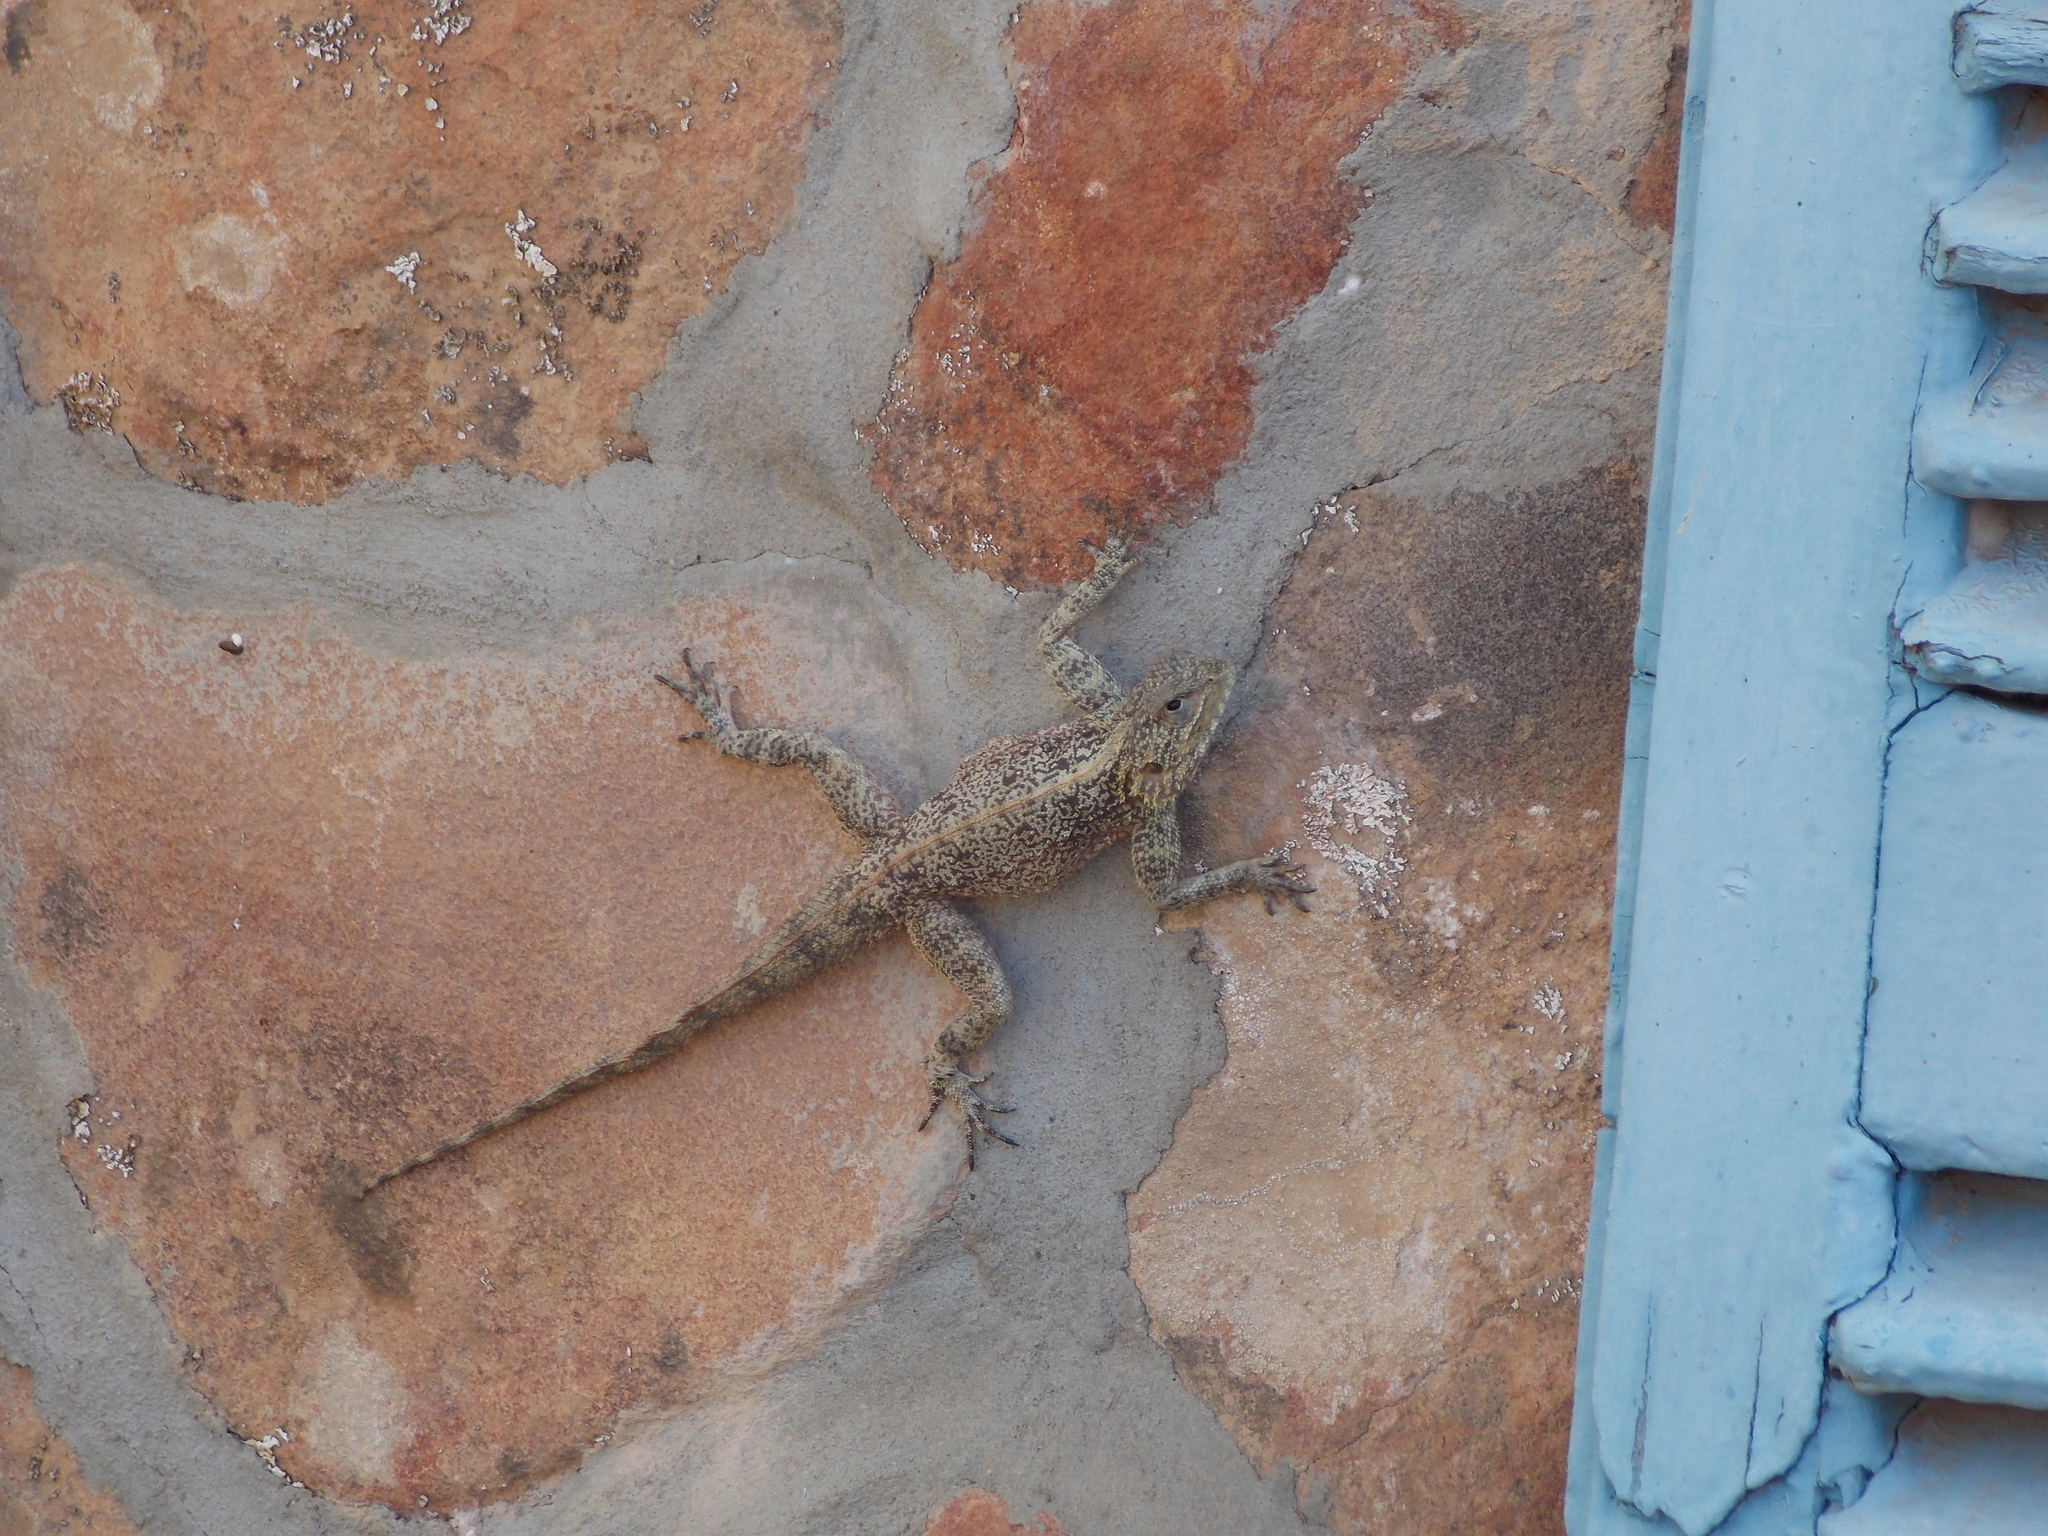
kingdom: Animalia
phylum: Chordata
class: Squamata
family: Agamidae
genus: Agama
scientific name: Agama atra
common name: Southern african rock agama
